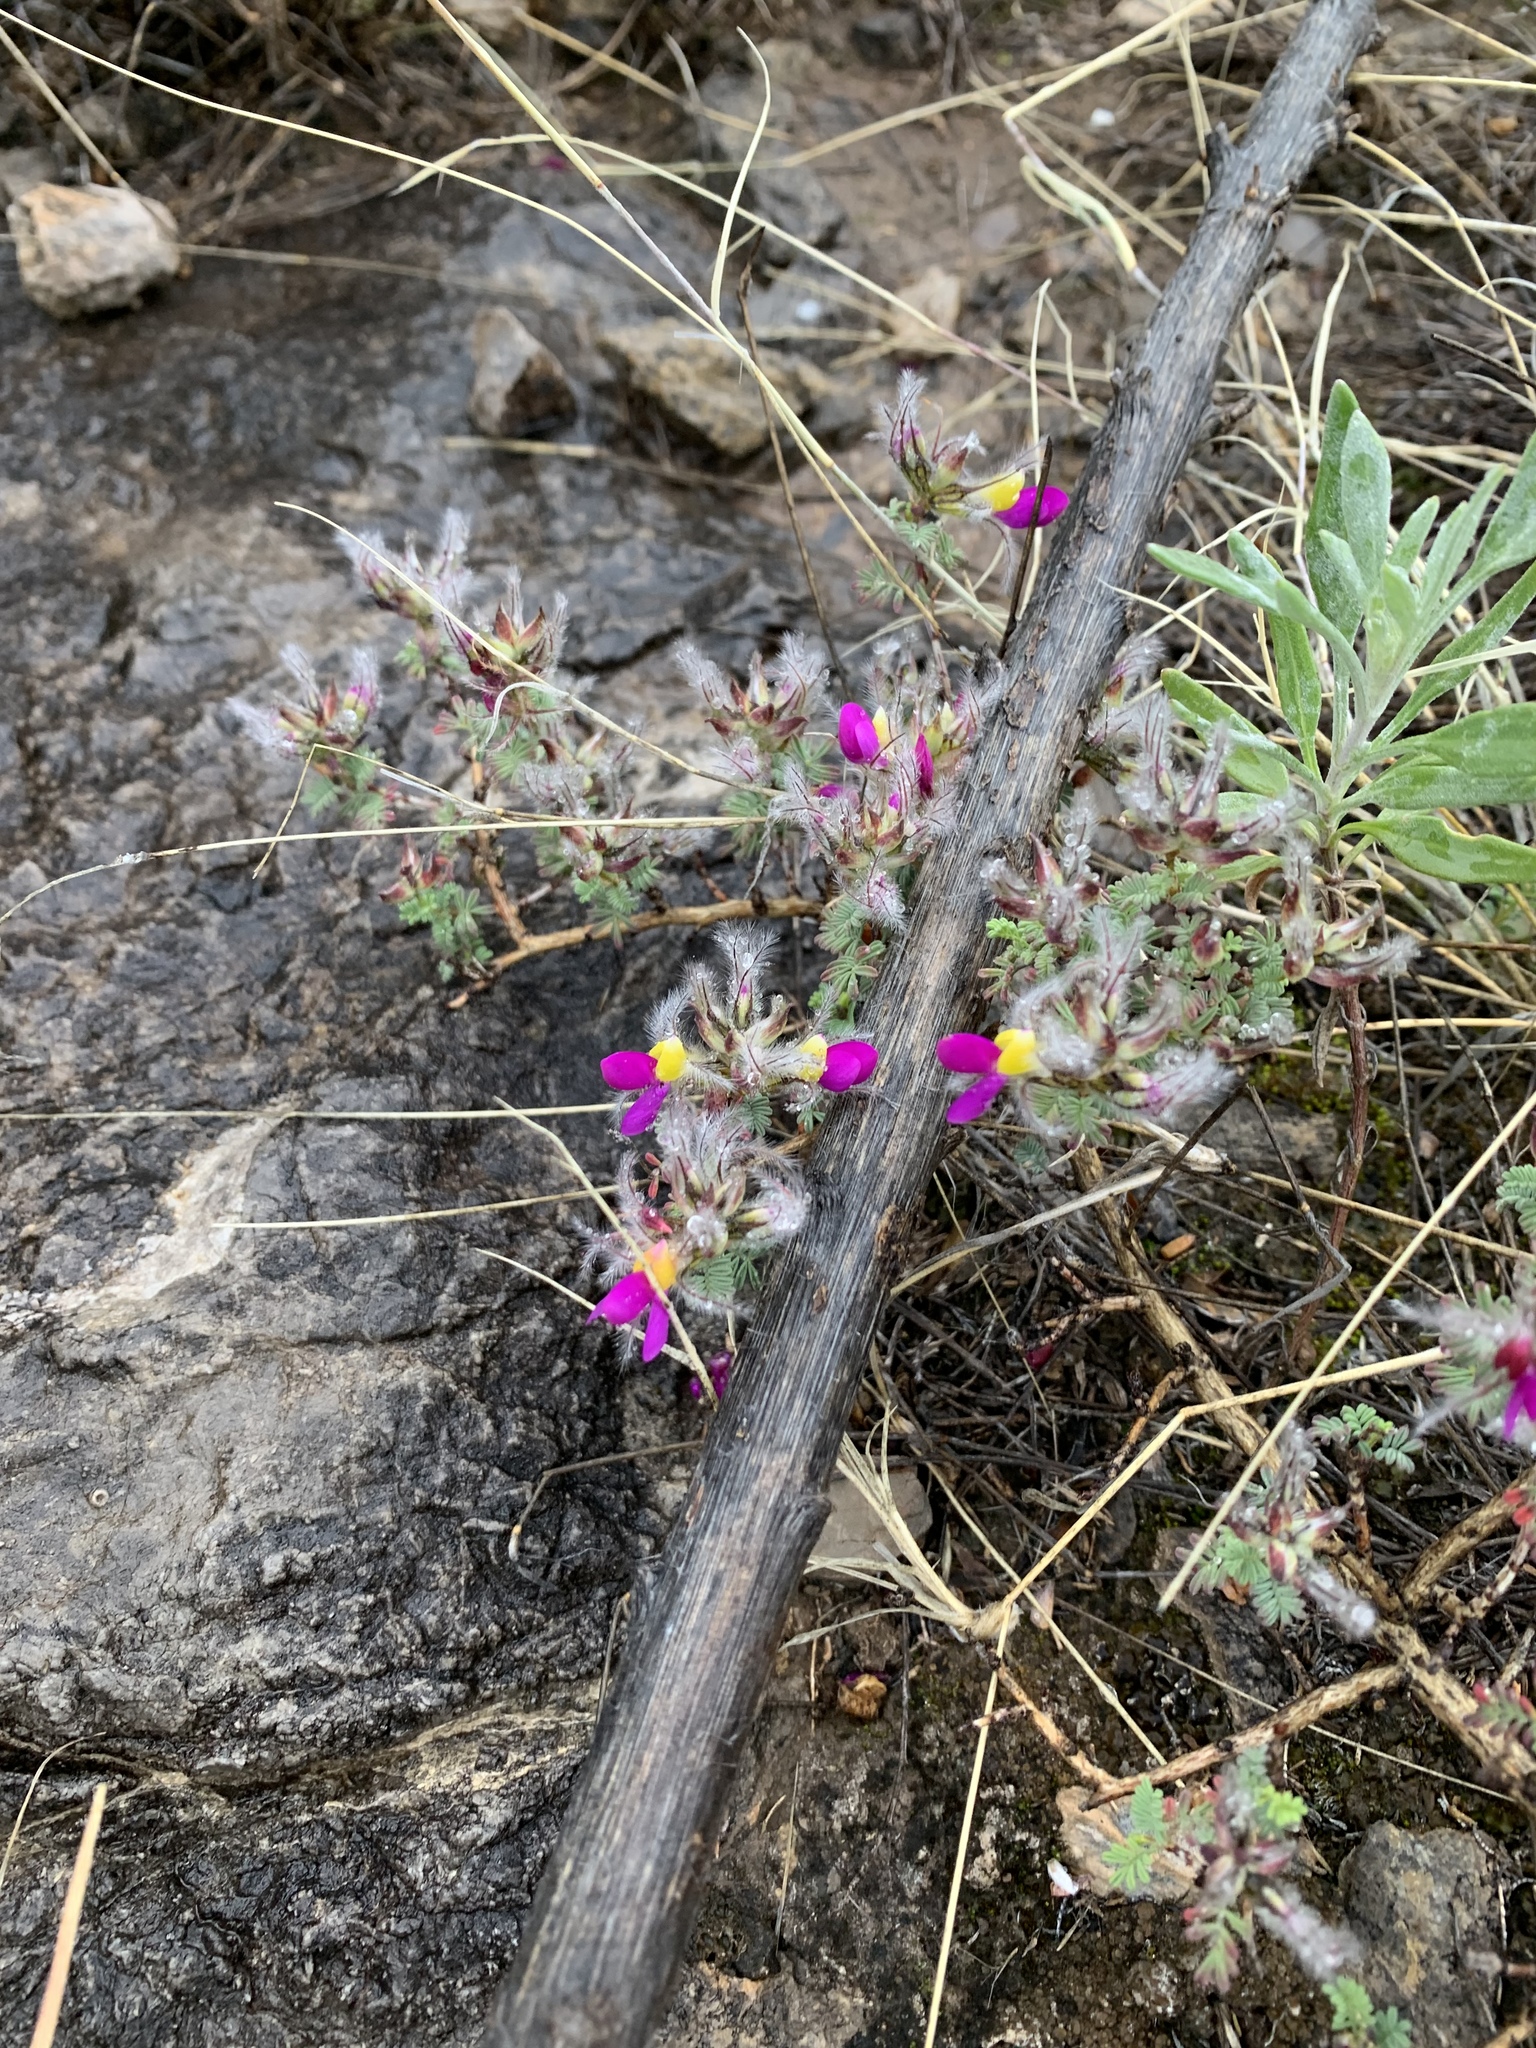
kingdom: Plantae
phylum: Tracheophyta
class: Magnoliopsida
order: Fabales
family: Fabaceae
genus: Dalea
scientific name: Dalea formosa
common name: Feather-plume dalea
